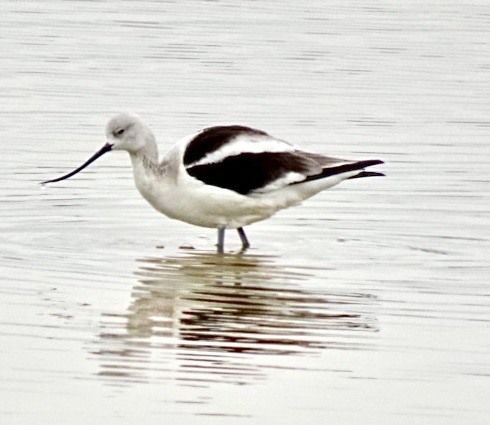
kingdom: Animalia
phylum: Chordata
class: Aves
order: Charadriiformes
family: Recurvirostridae
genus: Recurvirostra
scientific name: Recurvirostra americana
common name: American avocet
